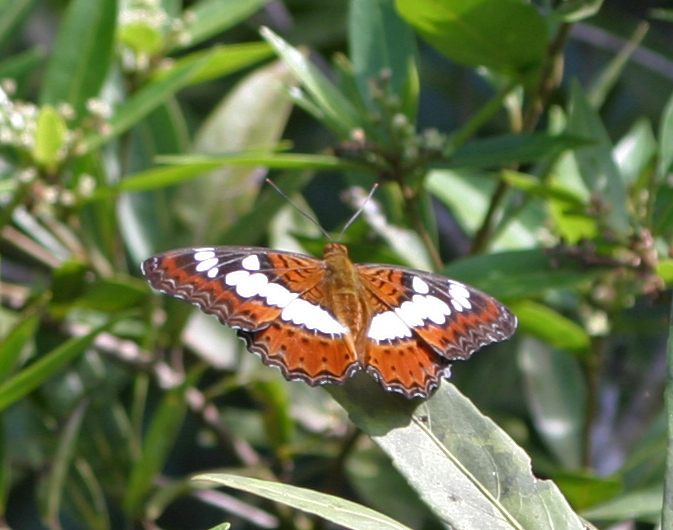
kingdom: Animalia
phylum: Arthropoda
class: Insecta
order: Lepidoptera
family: Nymphalidae
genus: Limenitis
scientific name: Limenitis Moduza procris
